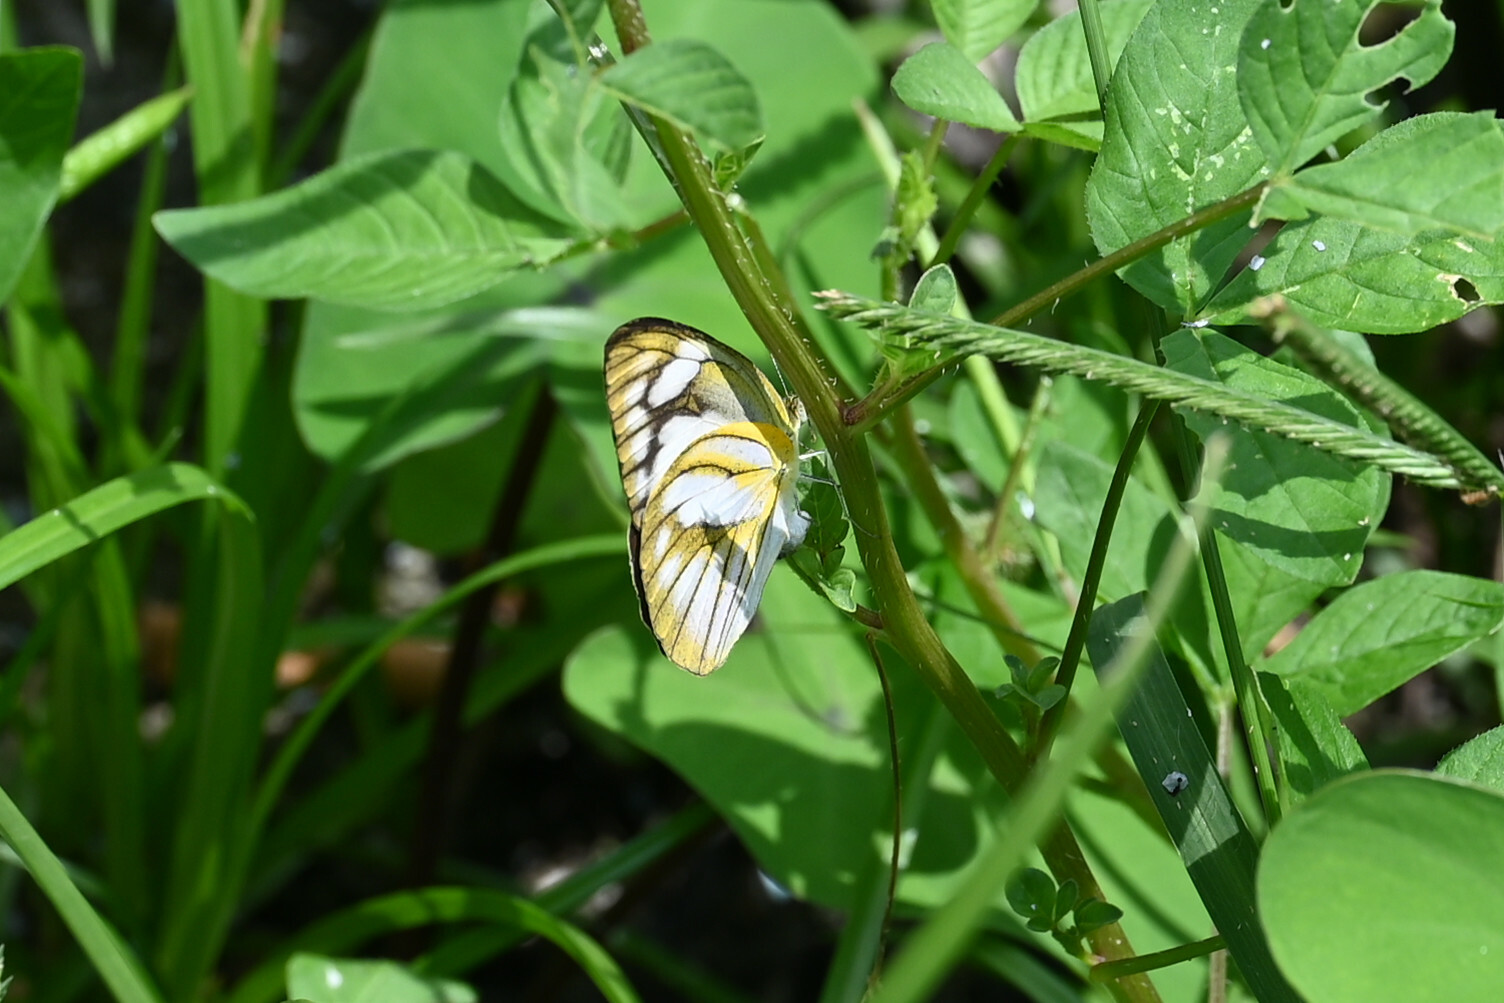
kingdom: Animalia
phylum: Arthropoda
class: Insecta
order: Lepidoptera
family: Pieridae
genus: Appias
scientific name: Appias libythea
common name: Striped albatross
